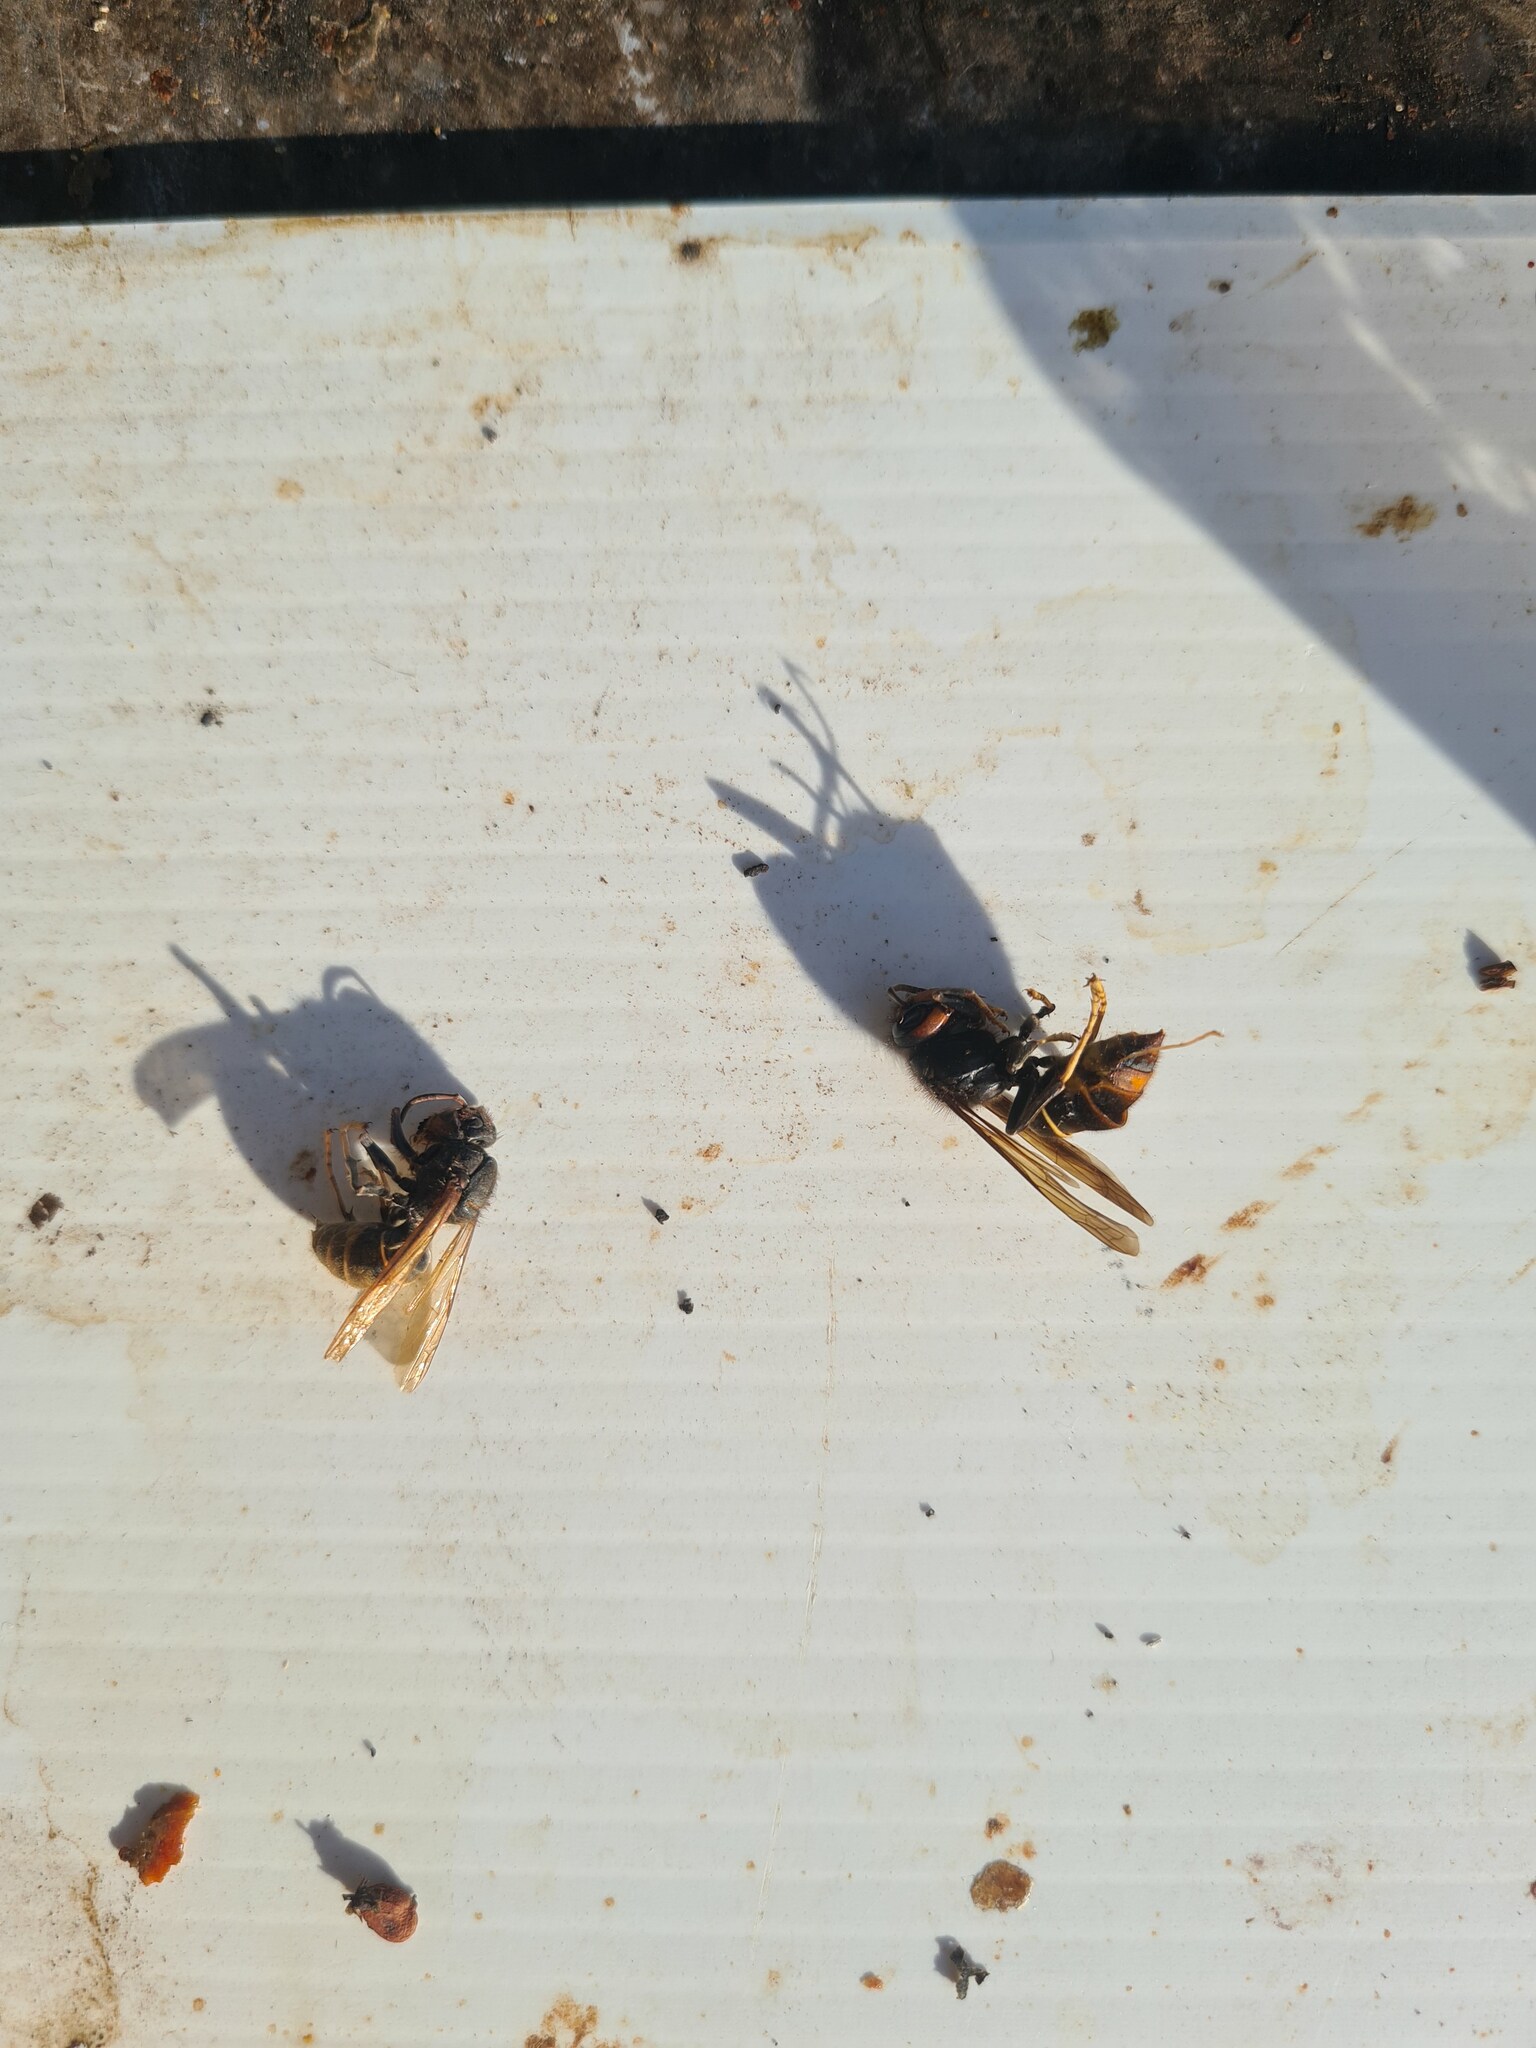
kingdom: Animalia
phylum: Arthropoda
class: Insecta
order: Hymenoptera
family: Vespidae
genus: Vespa
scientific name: Vespa velutina
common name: Asian hornet
